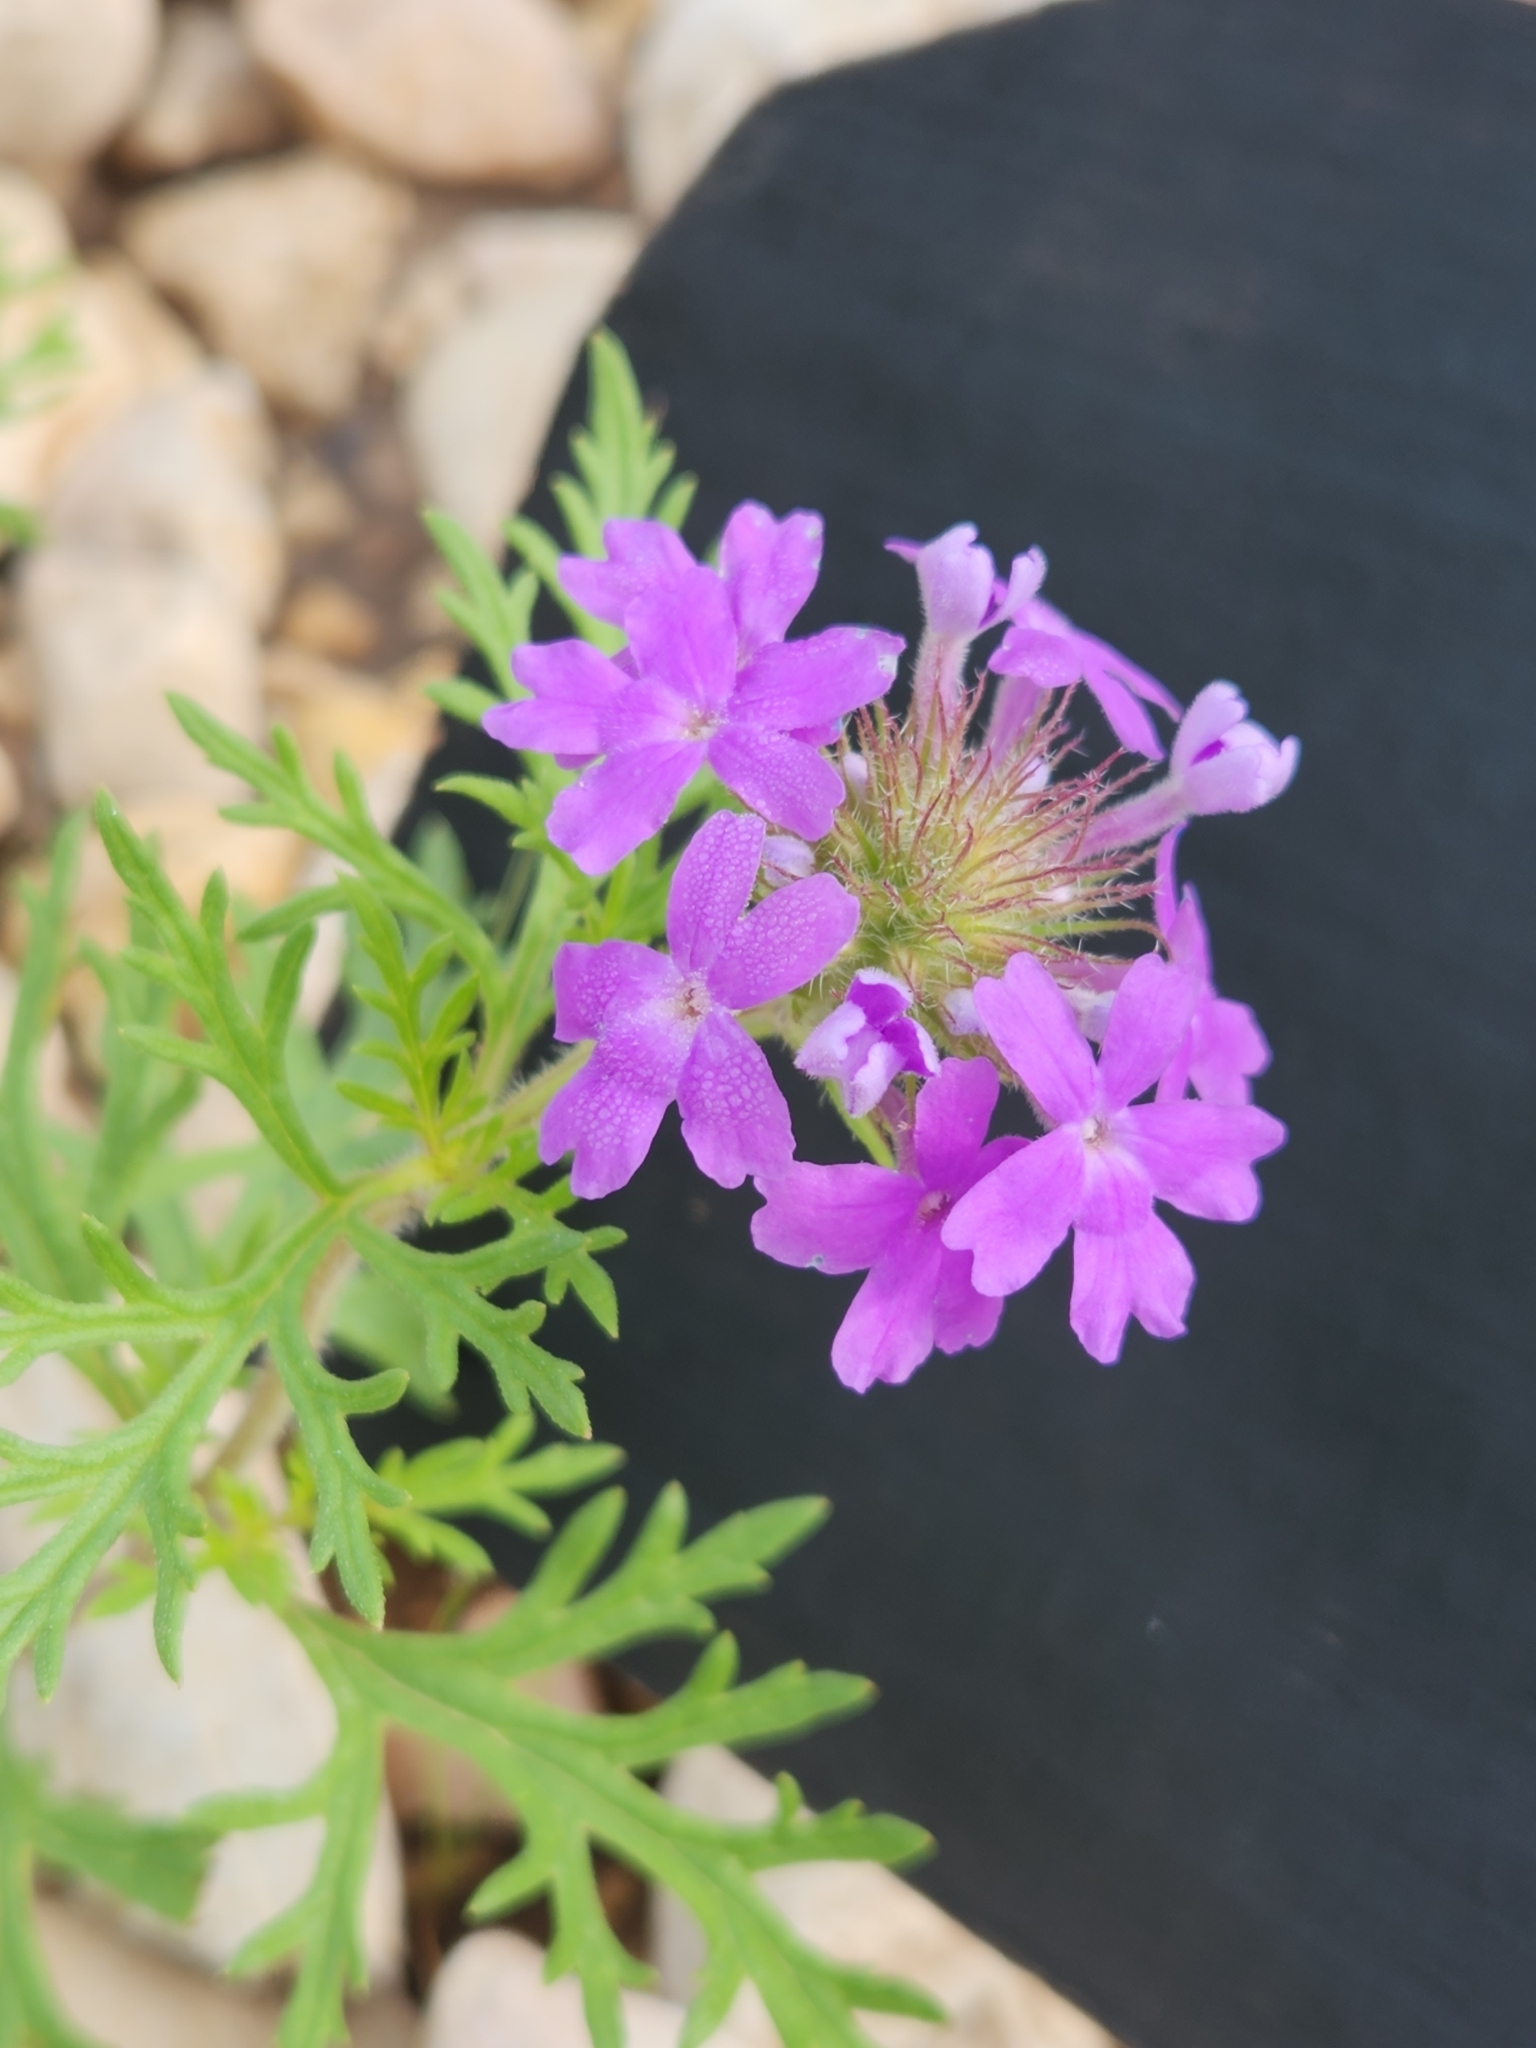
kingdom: Plantae
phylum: Tracheophyta
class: Magnoliopsida
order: Lamiales
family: Verbenaceae
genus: Verbena
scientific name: Verbena bipinnatifida
